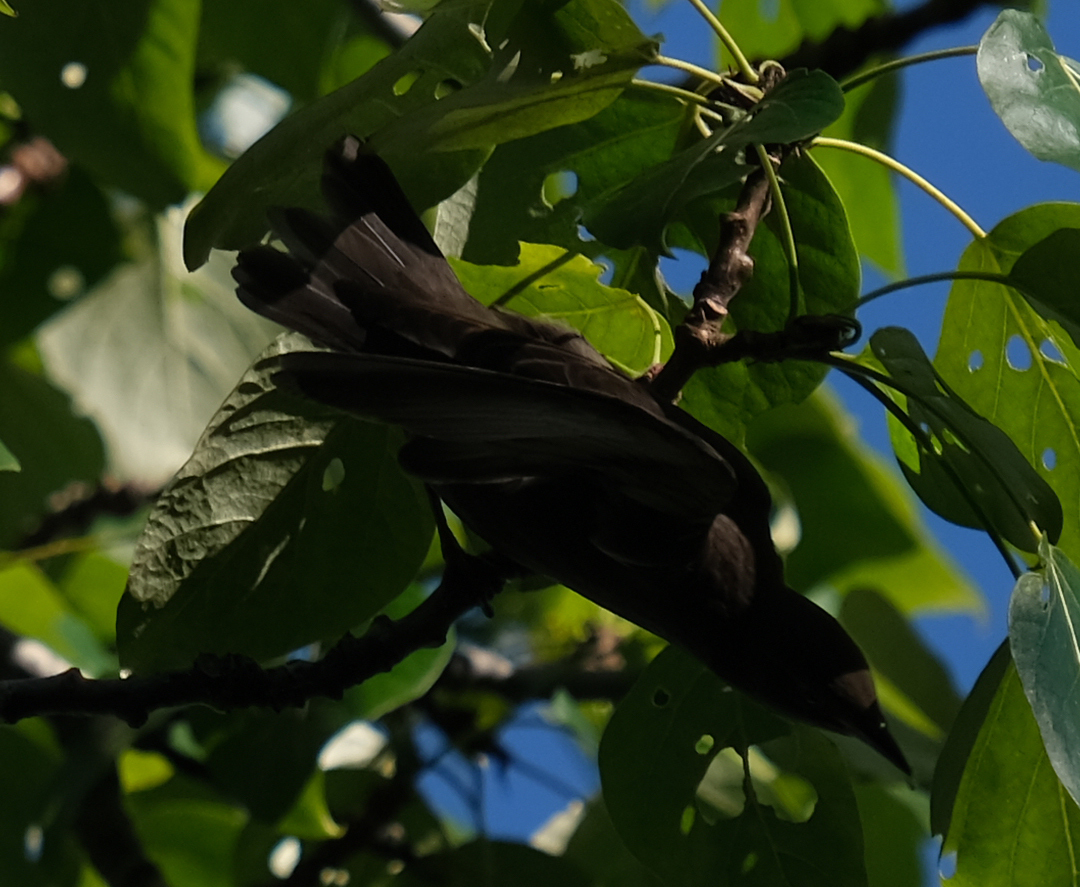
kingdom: Animalia
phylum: Chordata
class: Aves
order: Passeriformes
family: Sturnidae
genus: Sturnus
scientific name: Sturnus vulgaris
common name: Common starling
